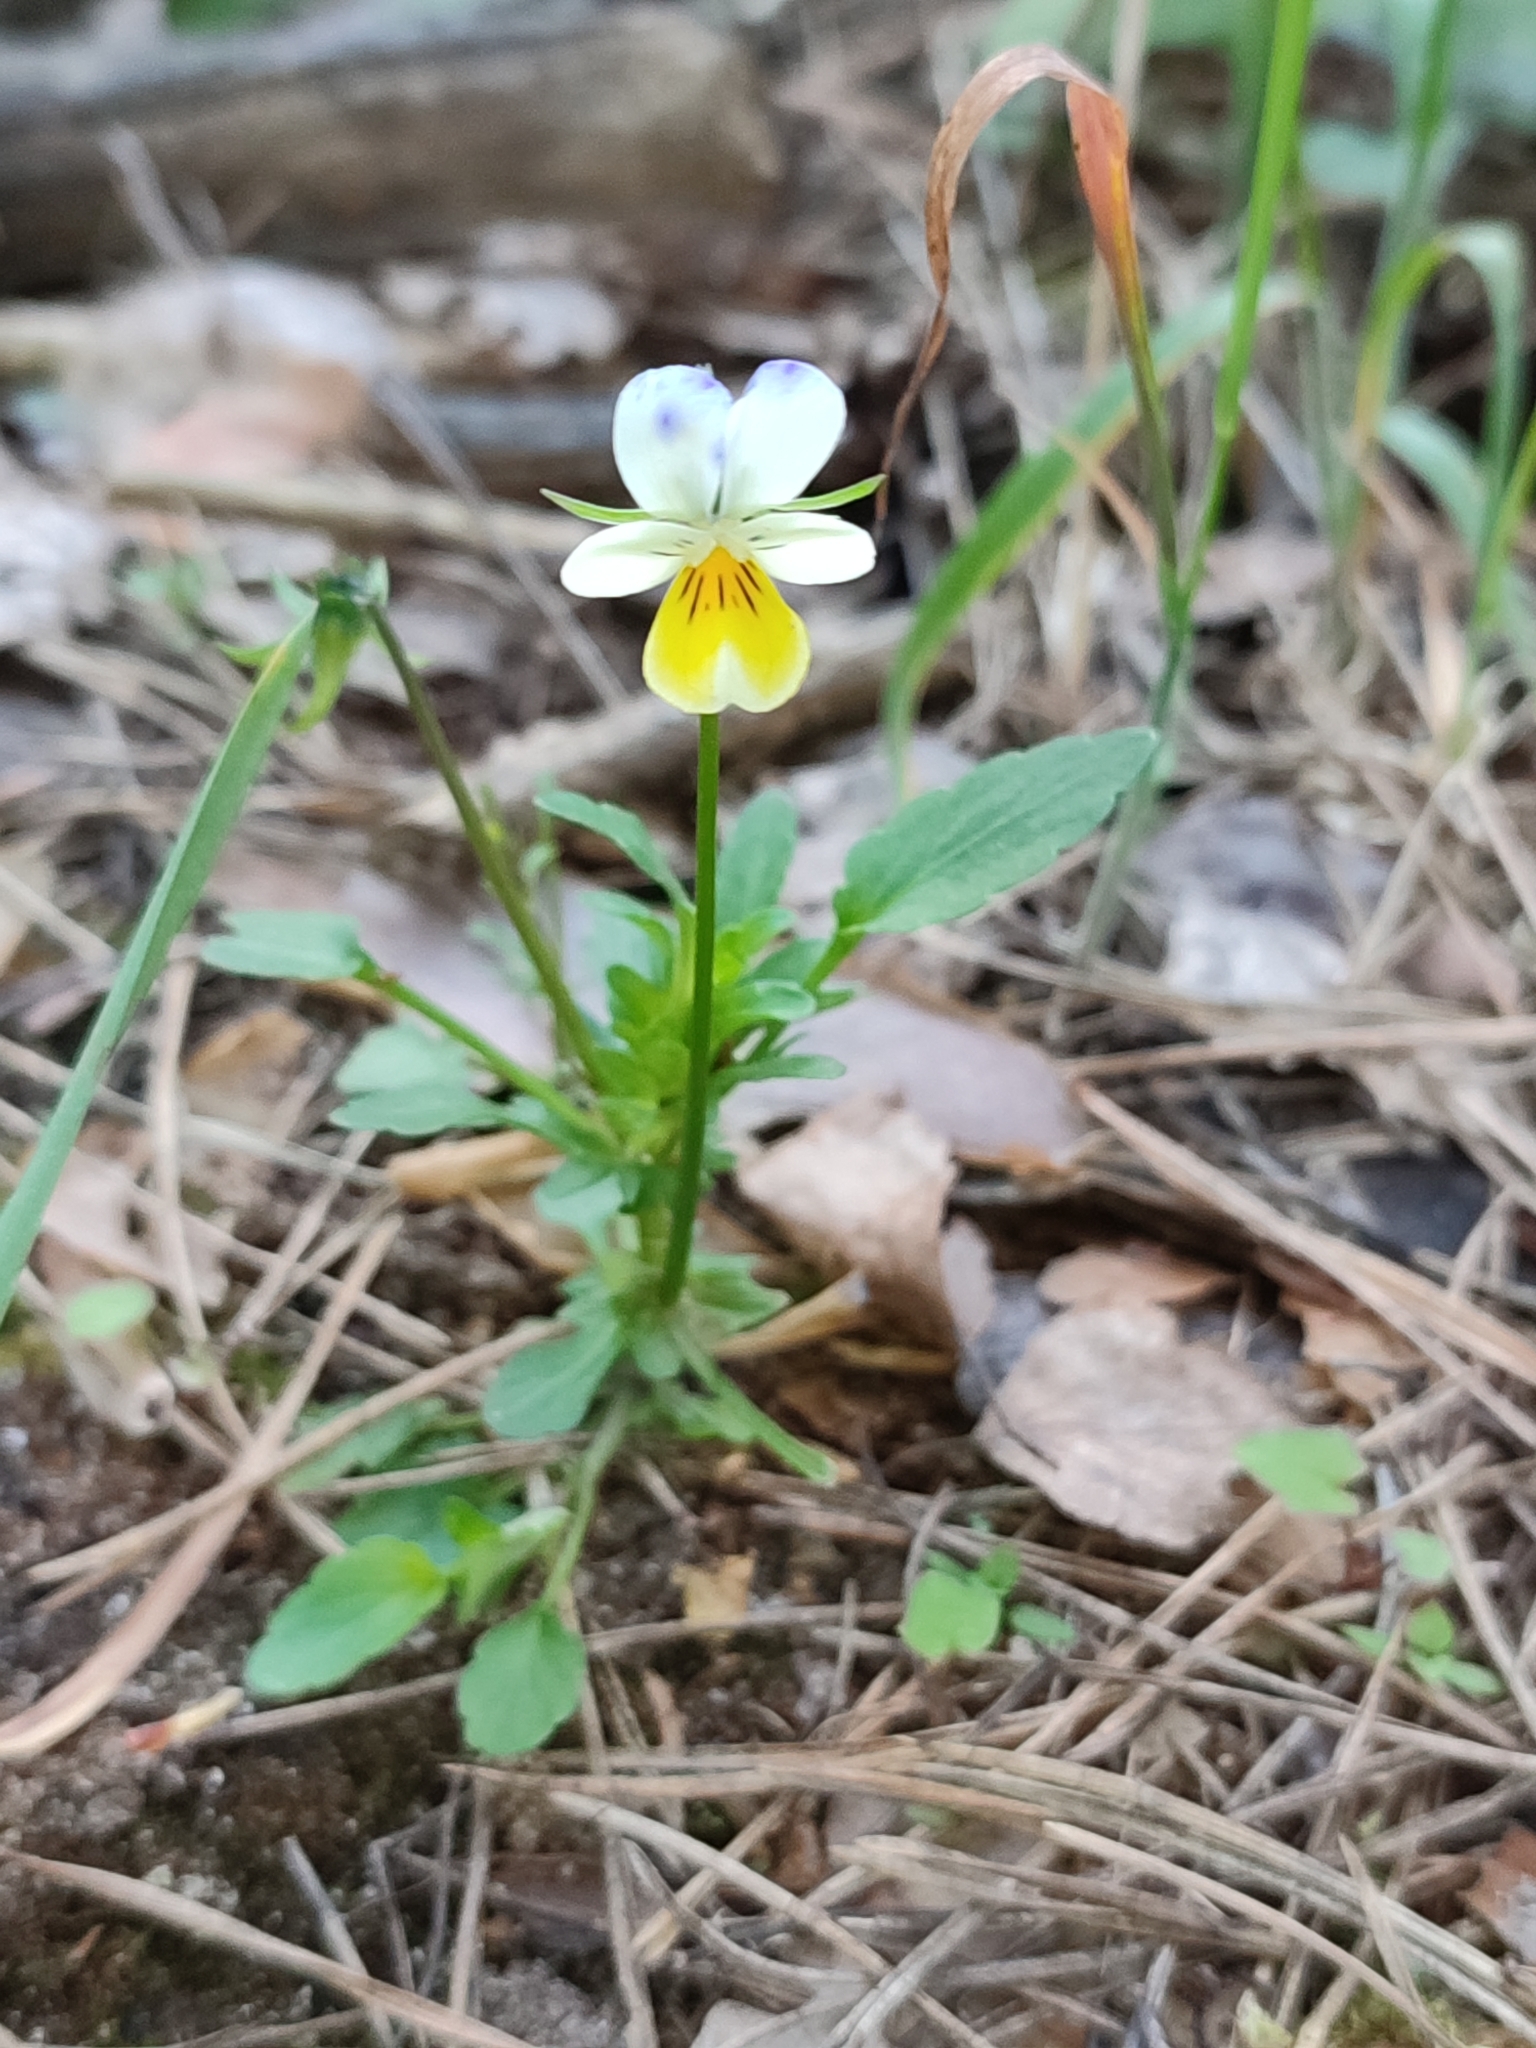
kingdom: Plantae
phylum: Tracheophyta
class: Magnoliopsida
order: Malpighiales
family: Violaceae
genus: Viola
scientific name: Viola arvensis
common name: Field pansy
